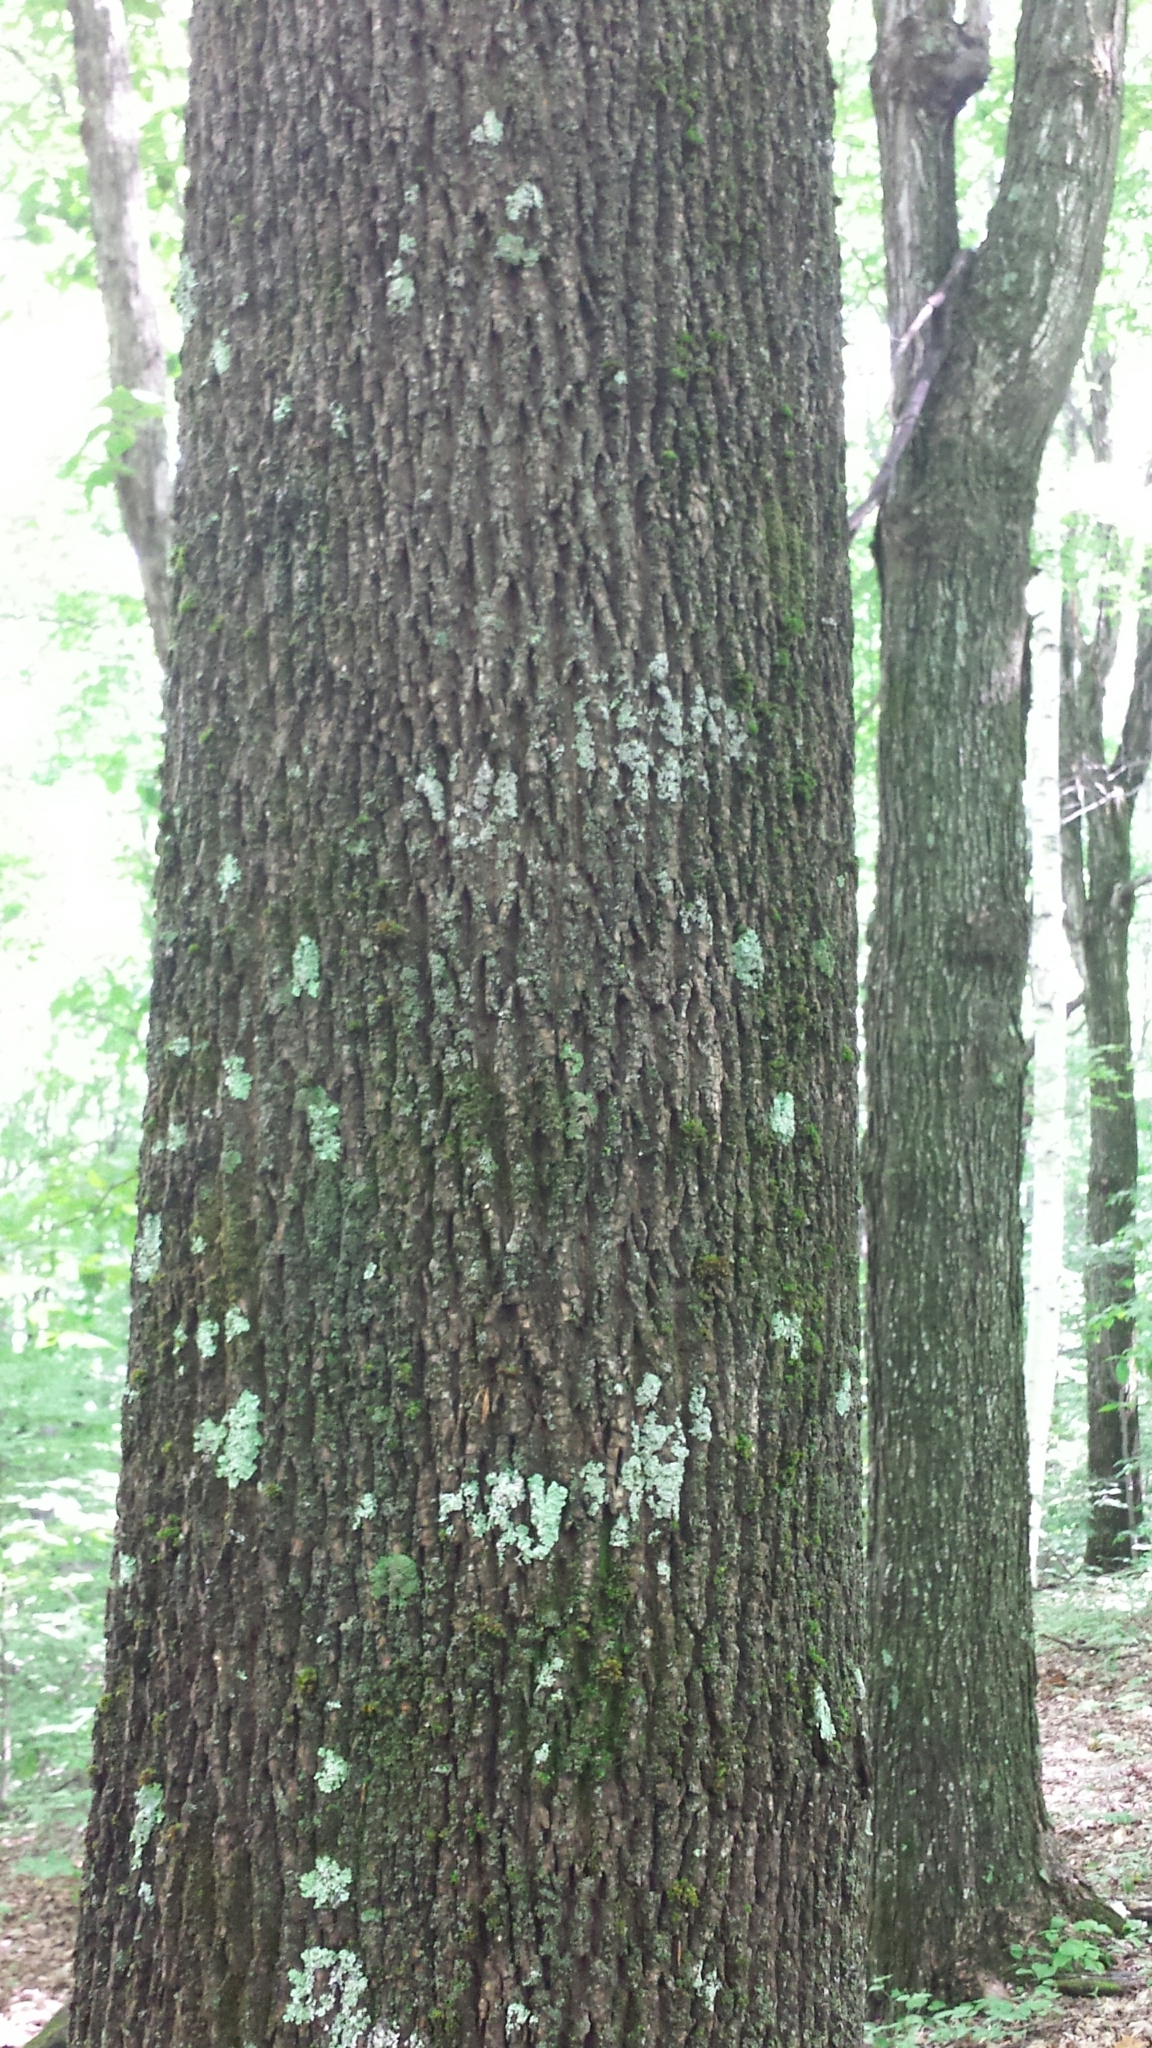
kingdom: Plantae
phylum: Tracheophyta
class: Magnoliopsida
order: Lamiales
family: Oleaceae
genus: Fraxinus
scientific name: Fraxinus americana
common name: White ash
